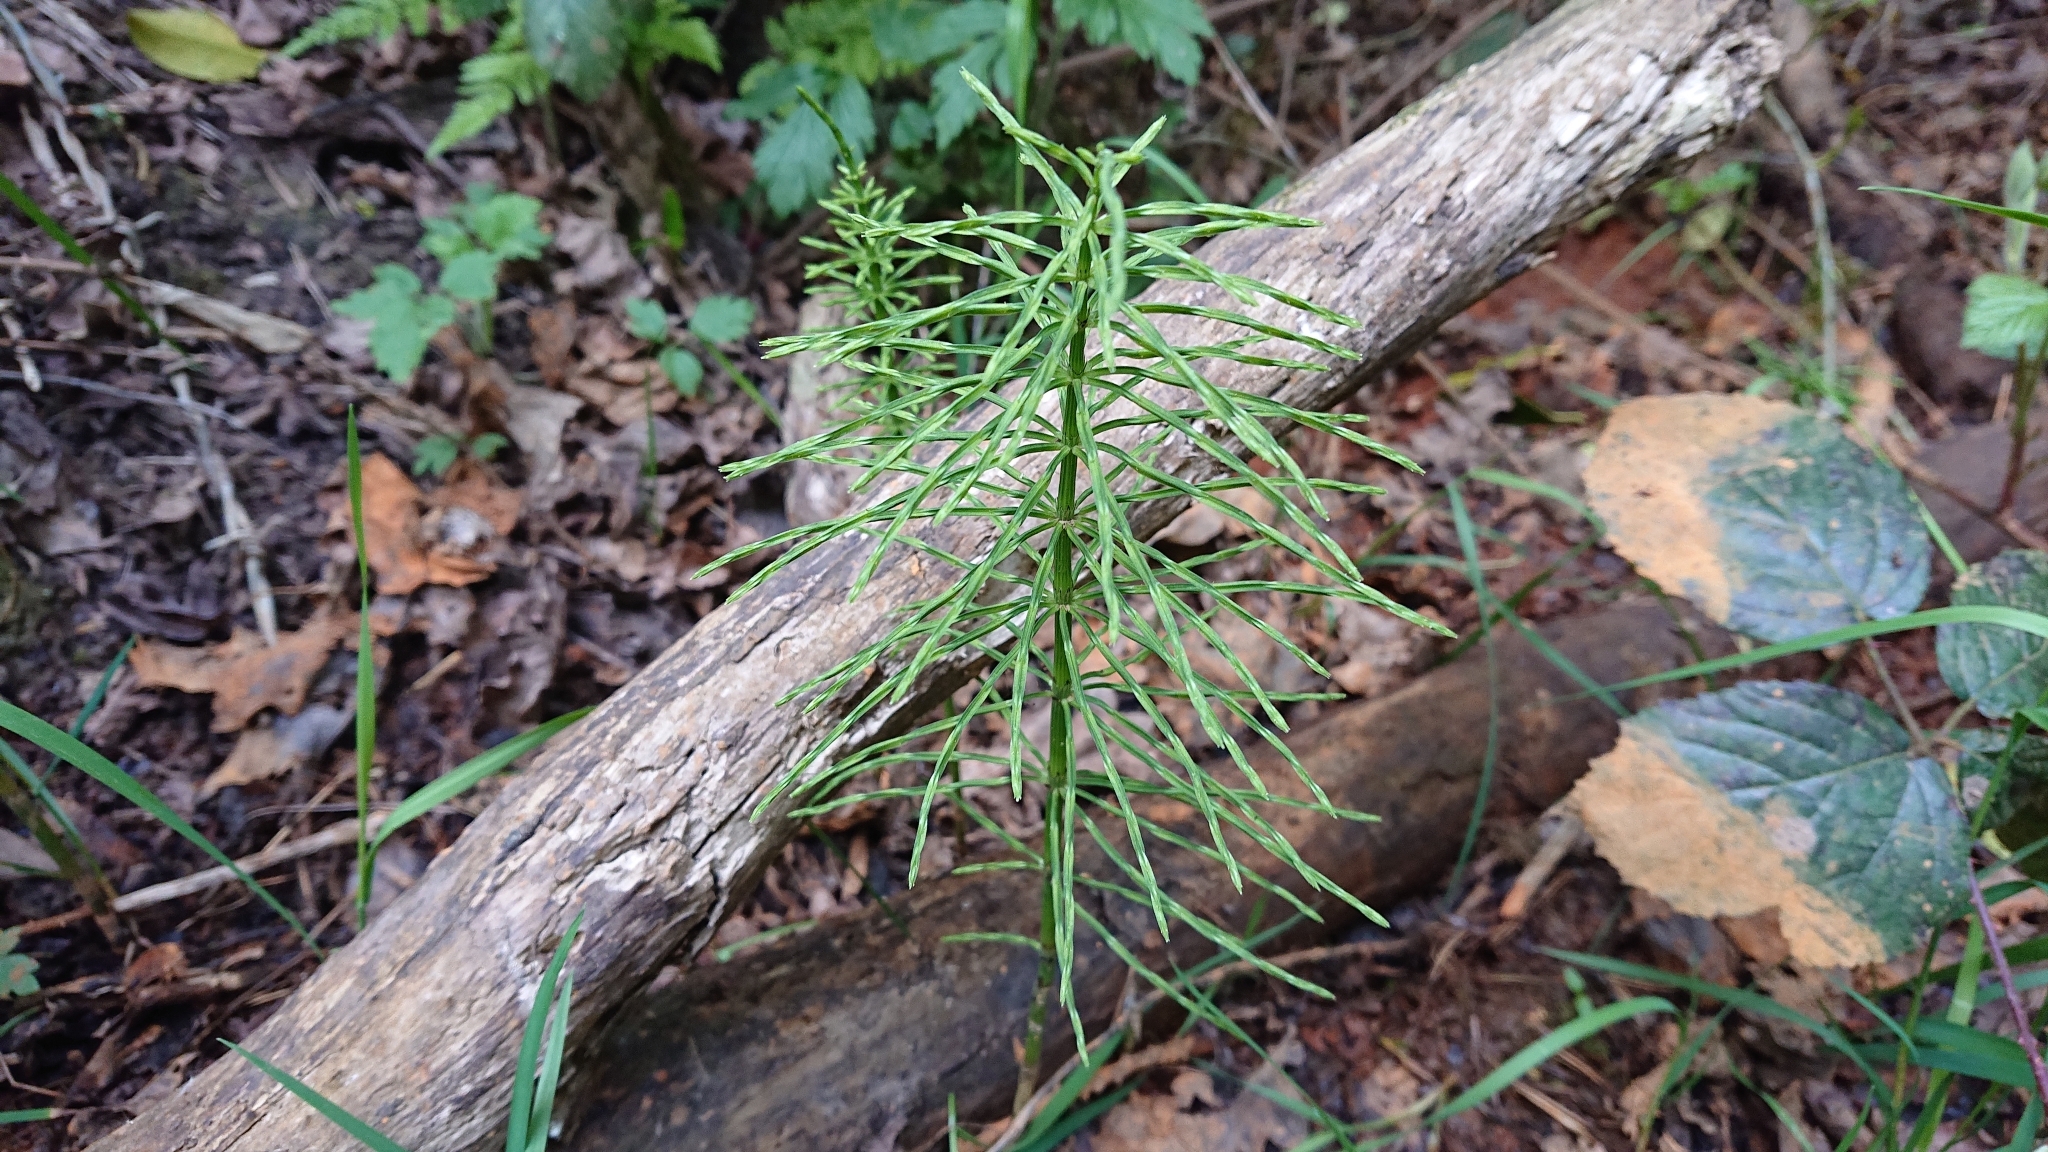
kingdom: Plantae
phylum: Tracheophyta
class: Polypodiopsida
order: Equisetales
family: Equisetaceae
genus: Equisetum
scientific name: Equisetum arvense
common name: Field horsetail
